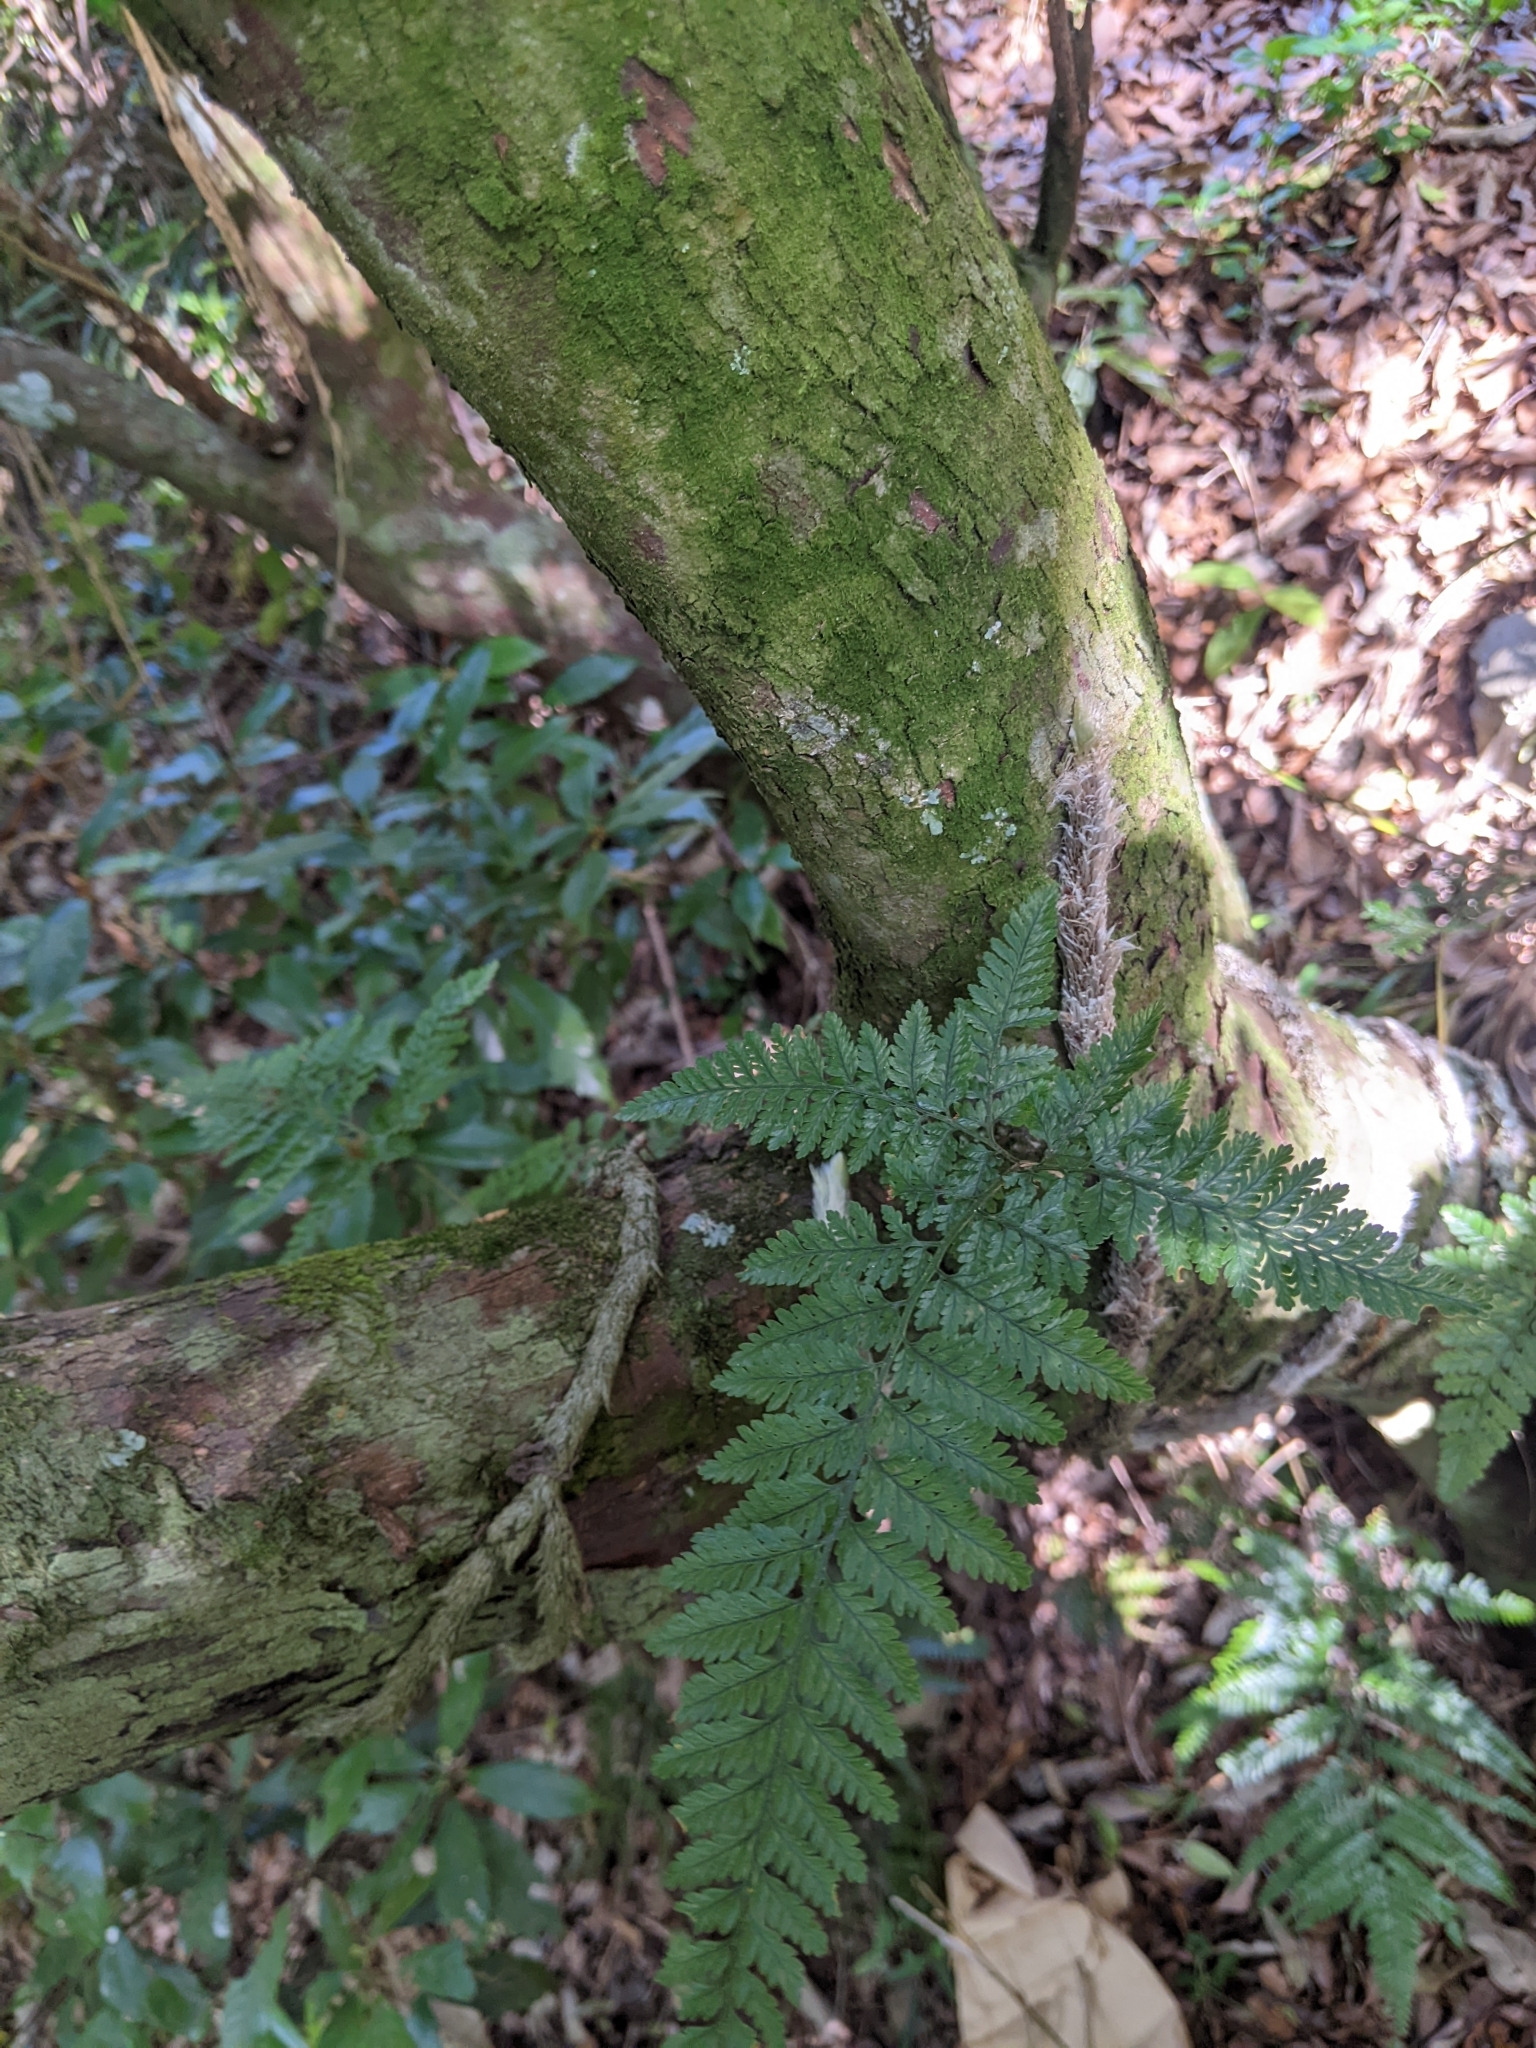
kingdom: Plantae
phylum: Tracheophyta
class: Polypodiopsida
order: Polypodiales
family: Davalliaceae
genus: Davallia
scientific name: Davallia griffithiana
